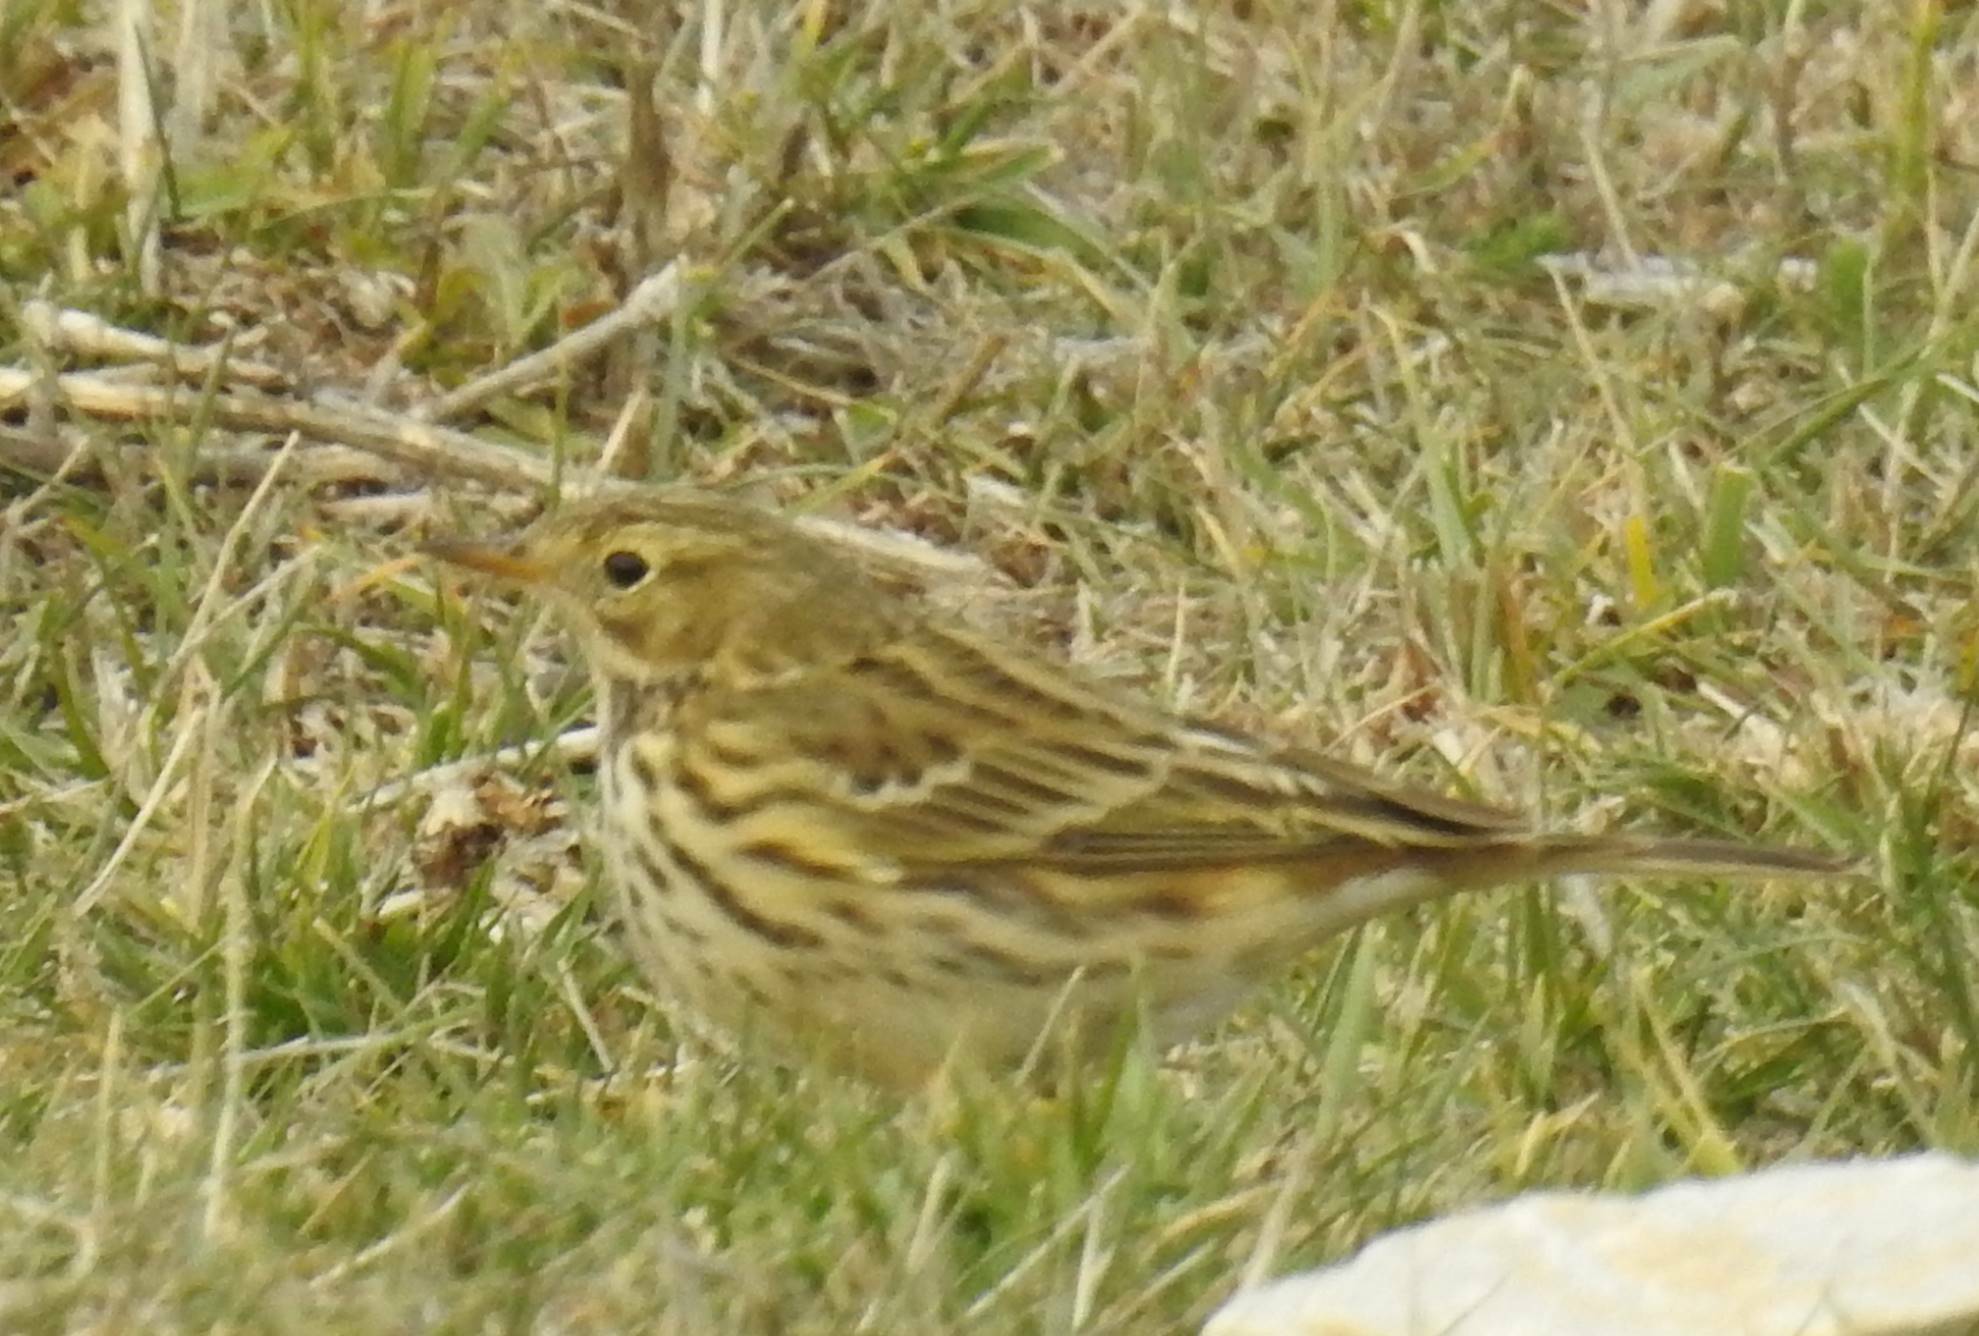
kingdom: Animalia
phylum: Chordata
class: Aves
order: Passeriformes
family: Motacillidae
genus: Anthus
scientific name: Anthus pratensis
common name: Meadow pipit
